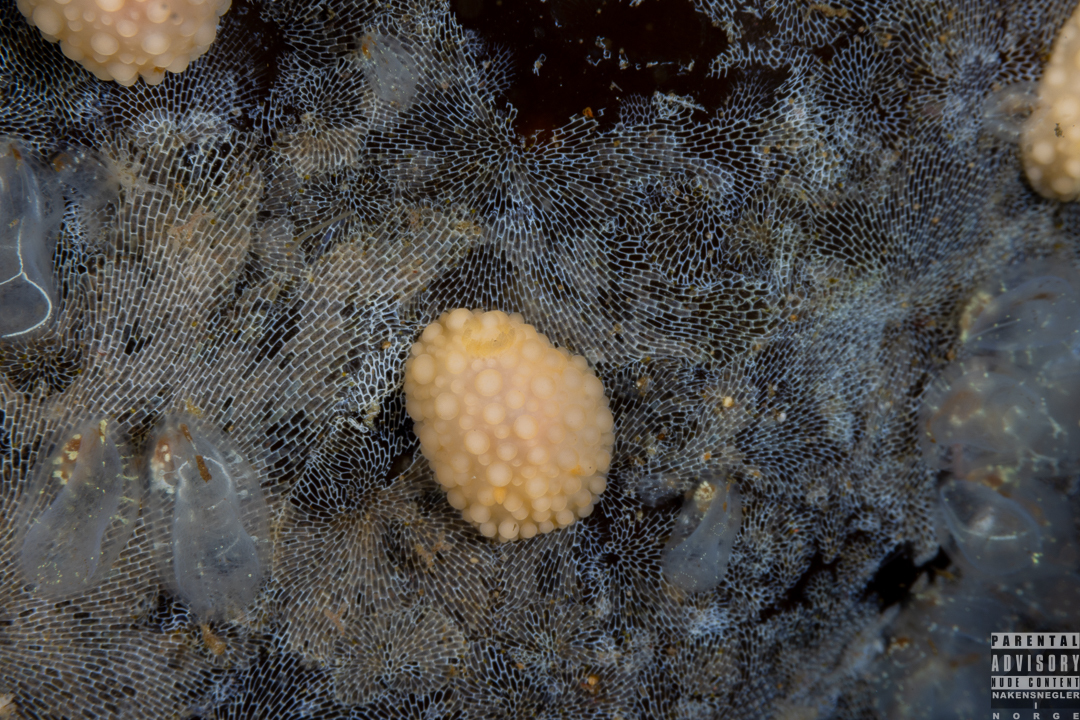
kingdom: Animalia
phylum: Mollusca
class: Gastropoda
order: Nudibranchia
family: Onchidorididae
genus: Adalaria
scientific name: Adalaria loveni
